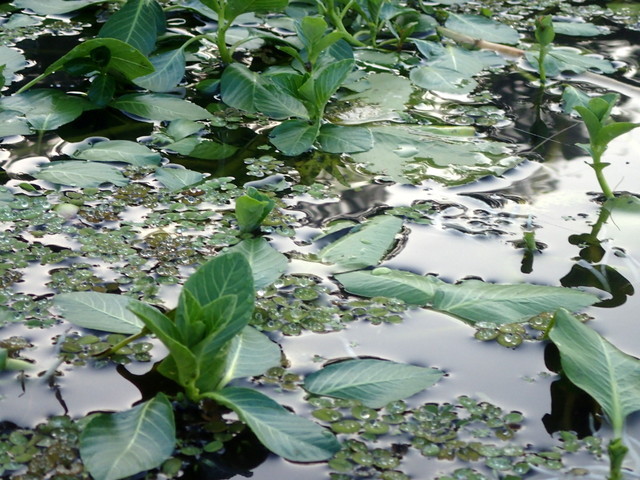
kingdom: Plantae
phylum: Tracheophyta
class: Magnoliopsida
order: Myrtales
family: Onagraceae
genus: Ludwigia
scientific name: Ludwigia peploides
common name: Floating primrose-willow
